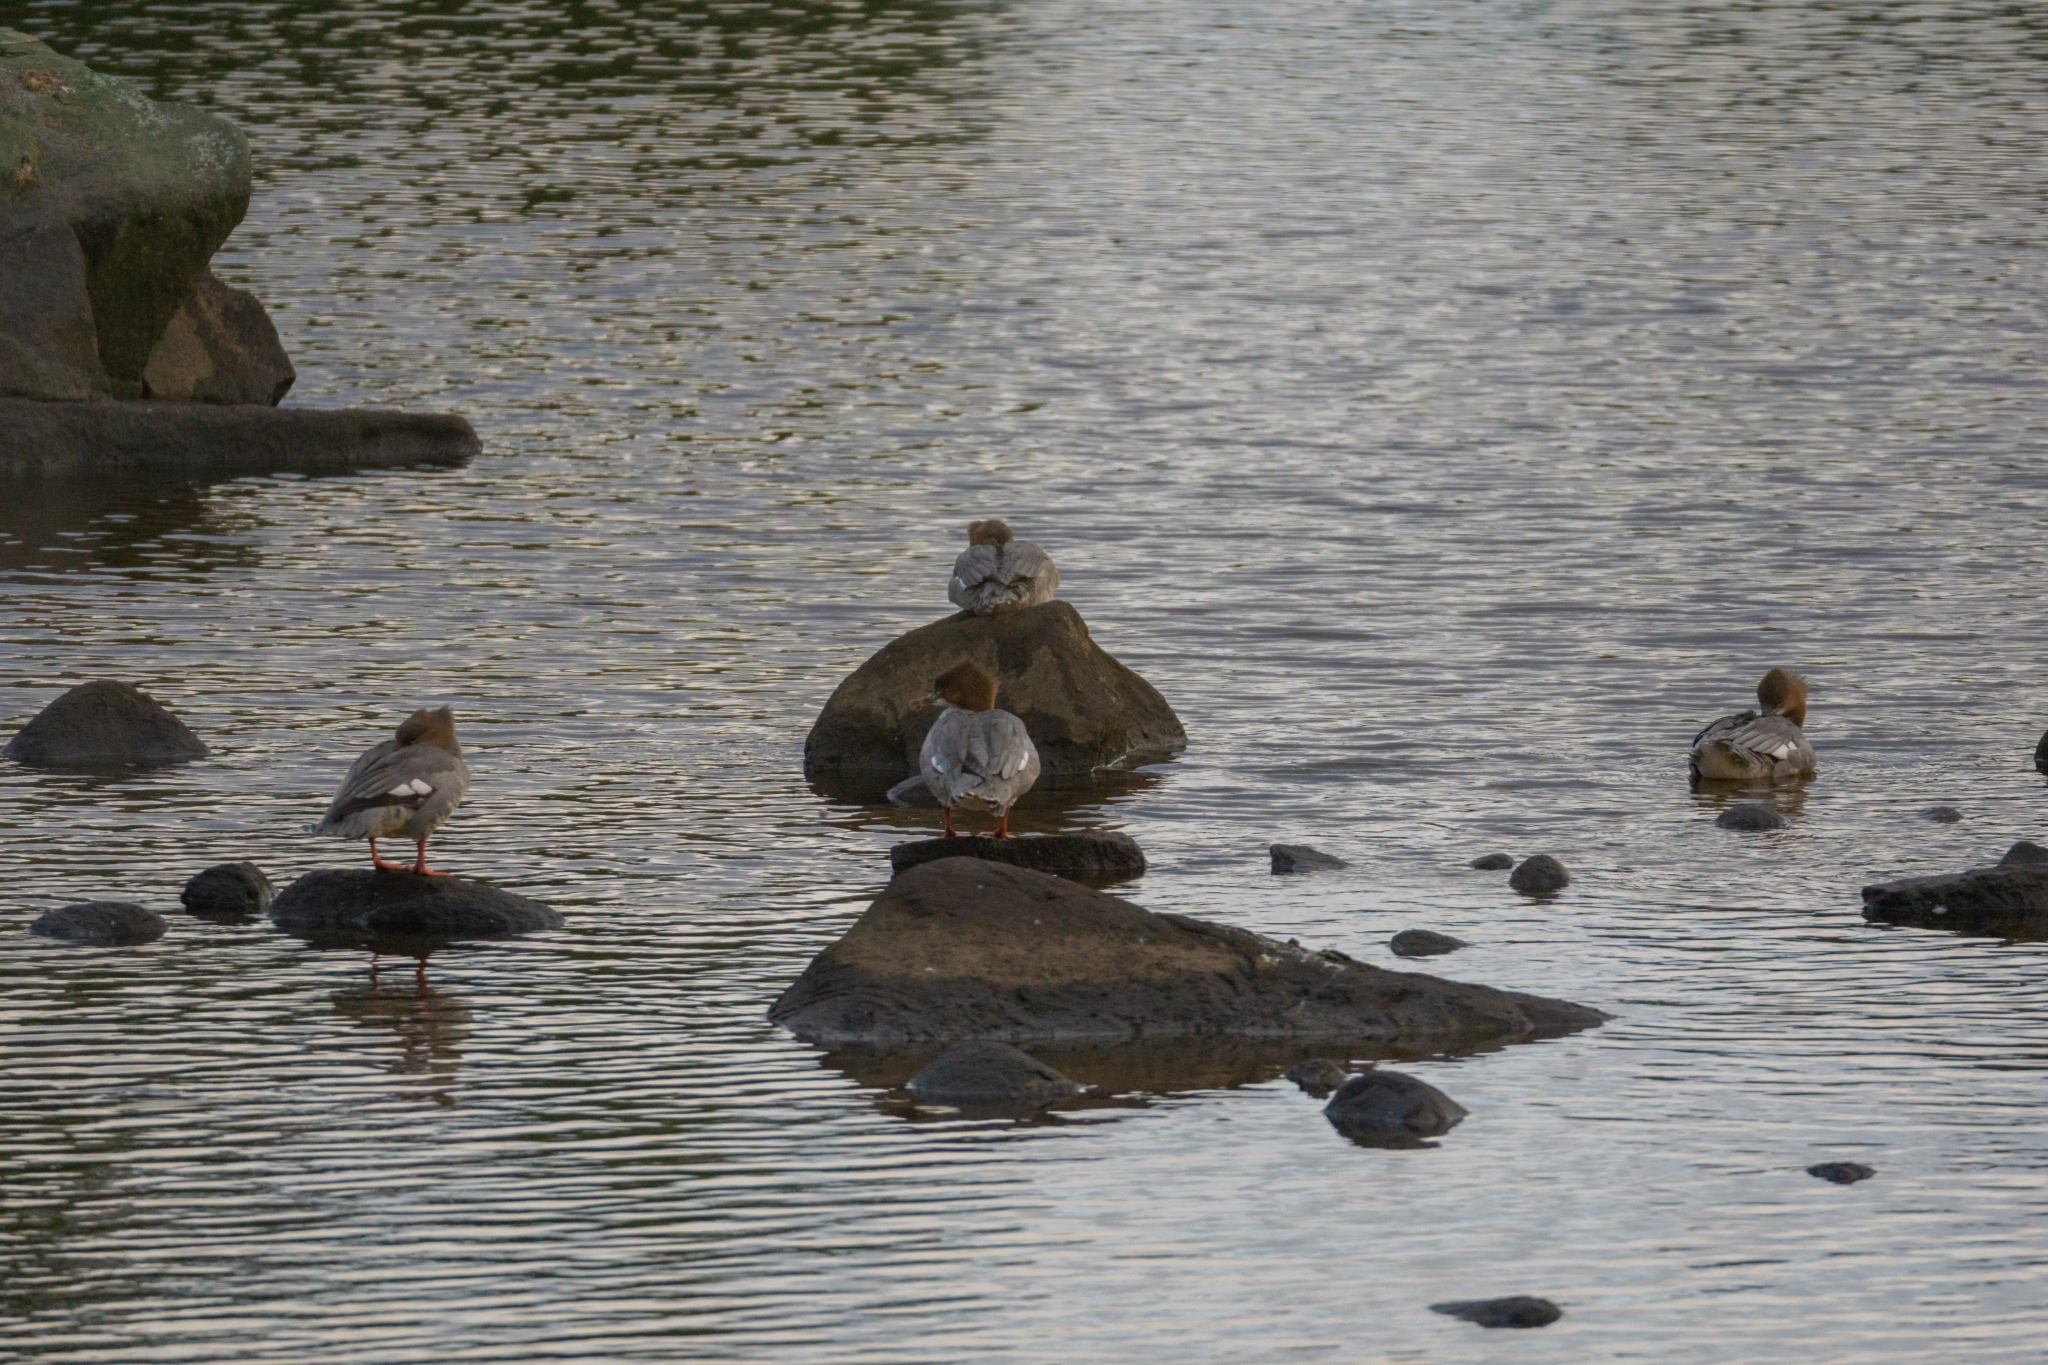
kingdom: Animalia
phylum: Chordata
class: Aves
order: Anseriformes
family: Anatidae
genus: Mergus
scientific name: Mergus merganser
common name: Common merganser
